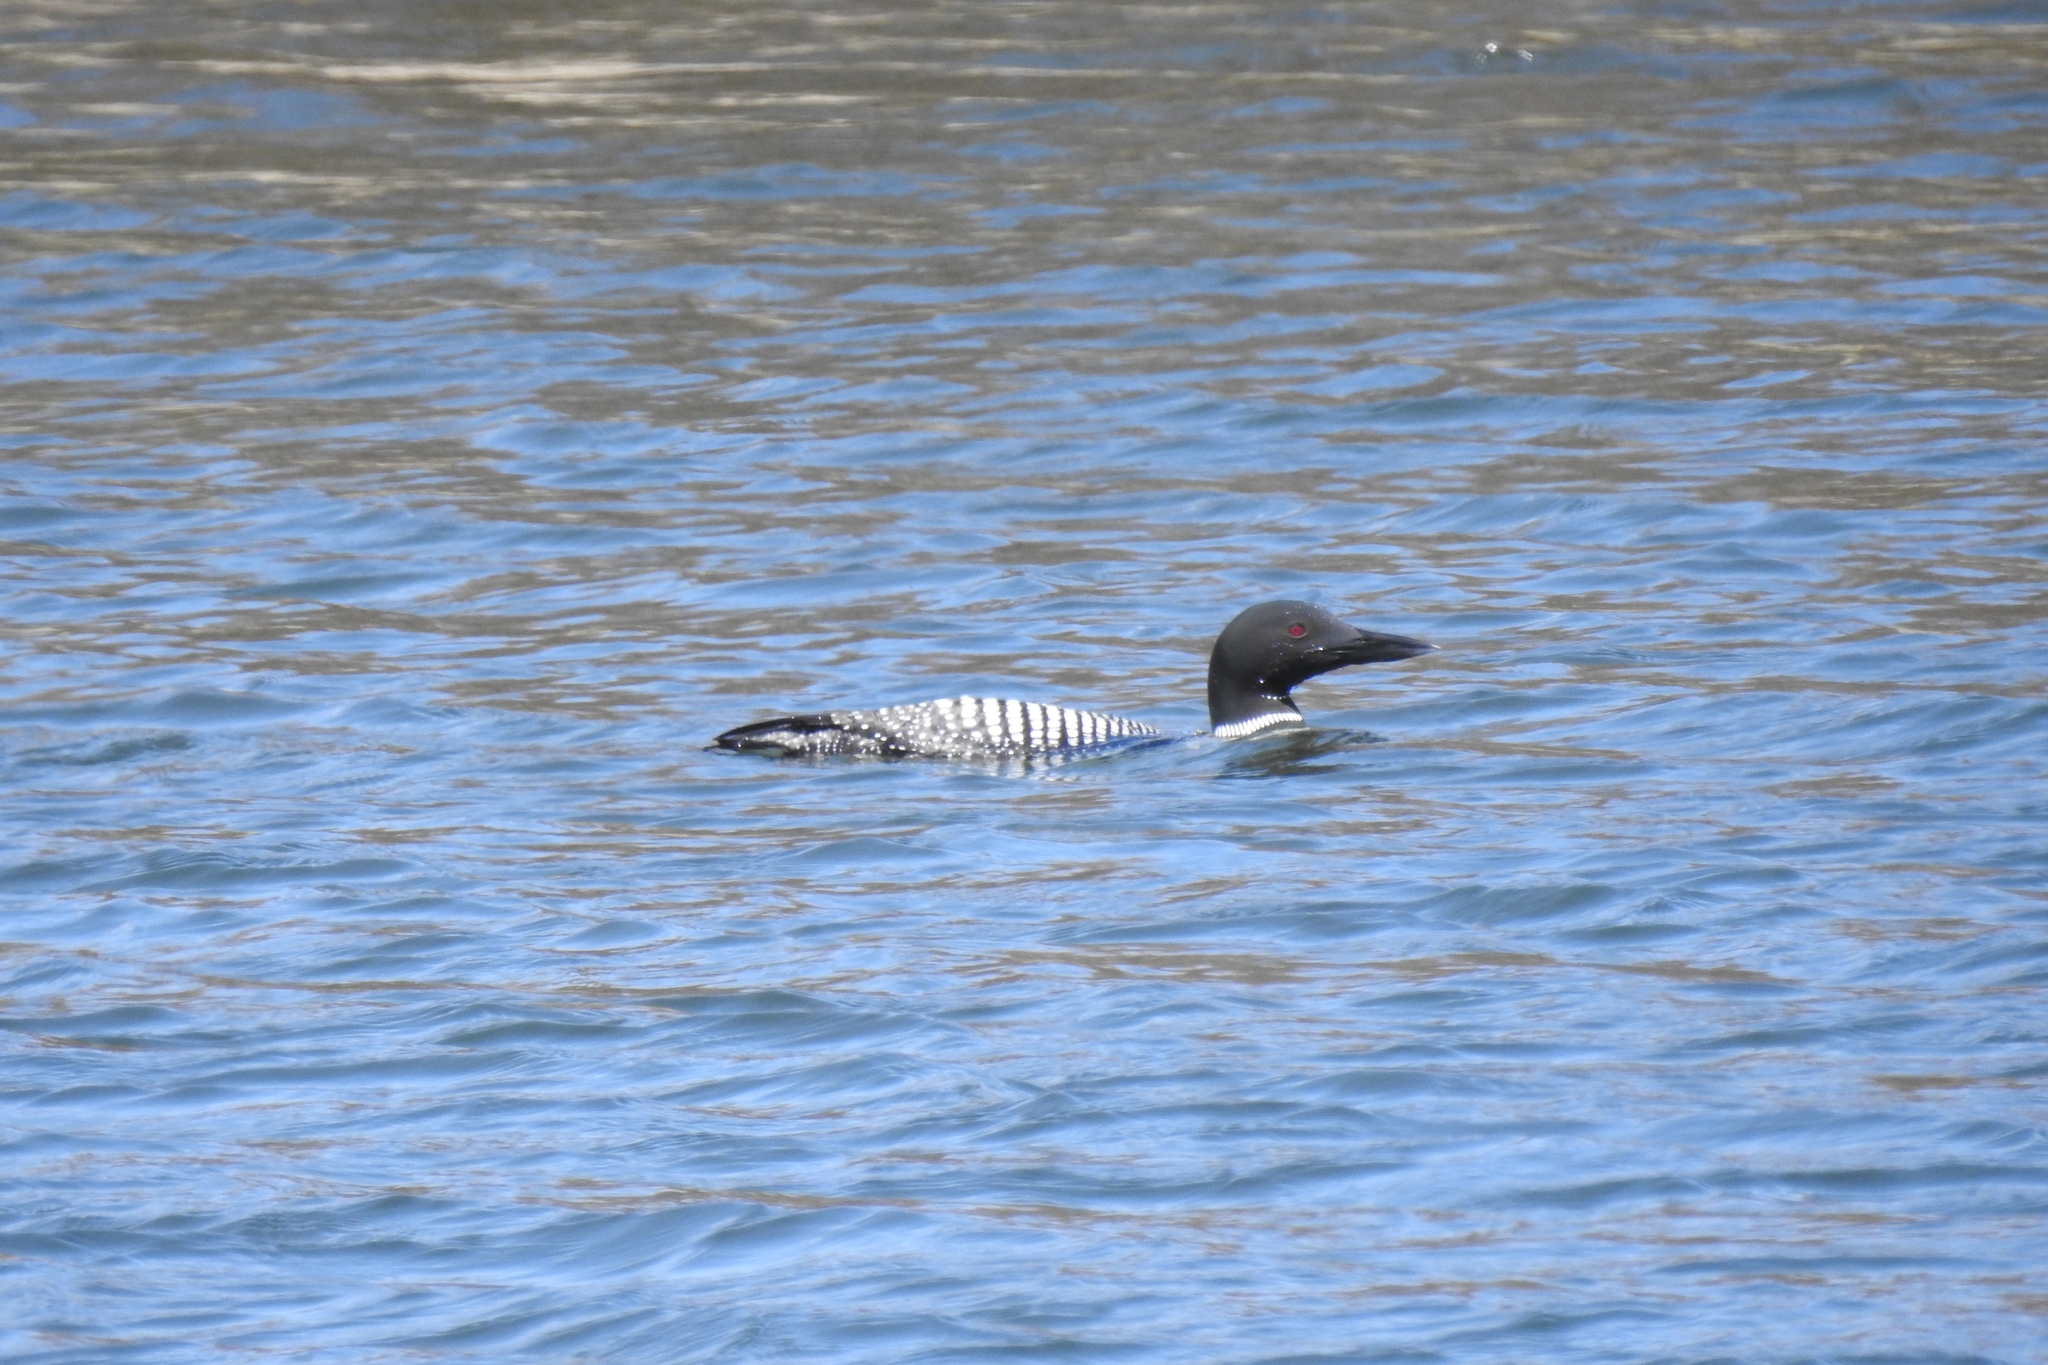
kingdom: Animalia
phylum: Chordata
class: Aves
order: Gaviiformes
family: Gaviidae
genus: Gavia
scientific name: Gavia immer
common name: Common loon
